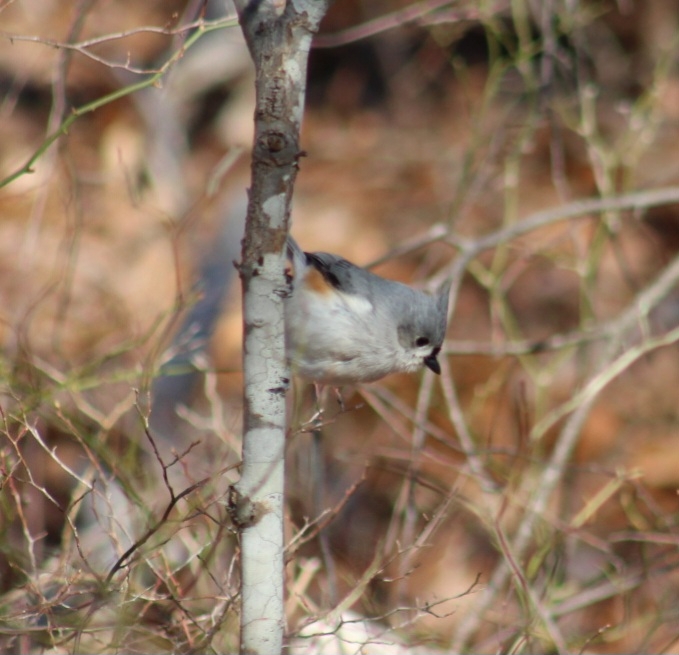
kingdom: Animalia
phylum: Chordata
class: Aves
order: Passeriformes
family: Paridae
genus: Baeolophus
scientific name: Baeolophus bicolor
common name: Tufted titmouse
